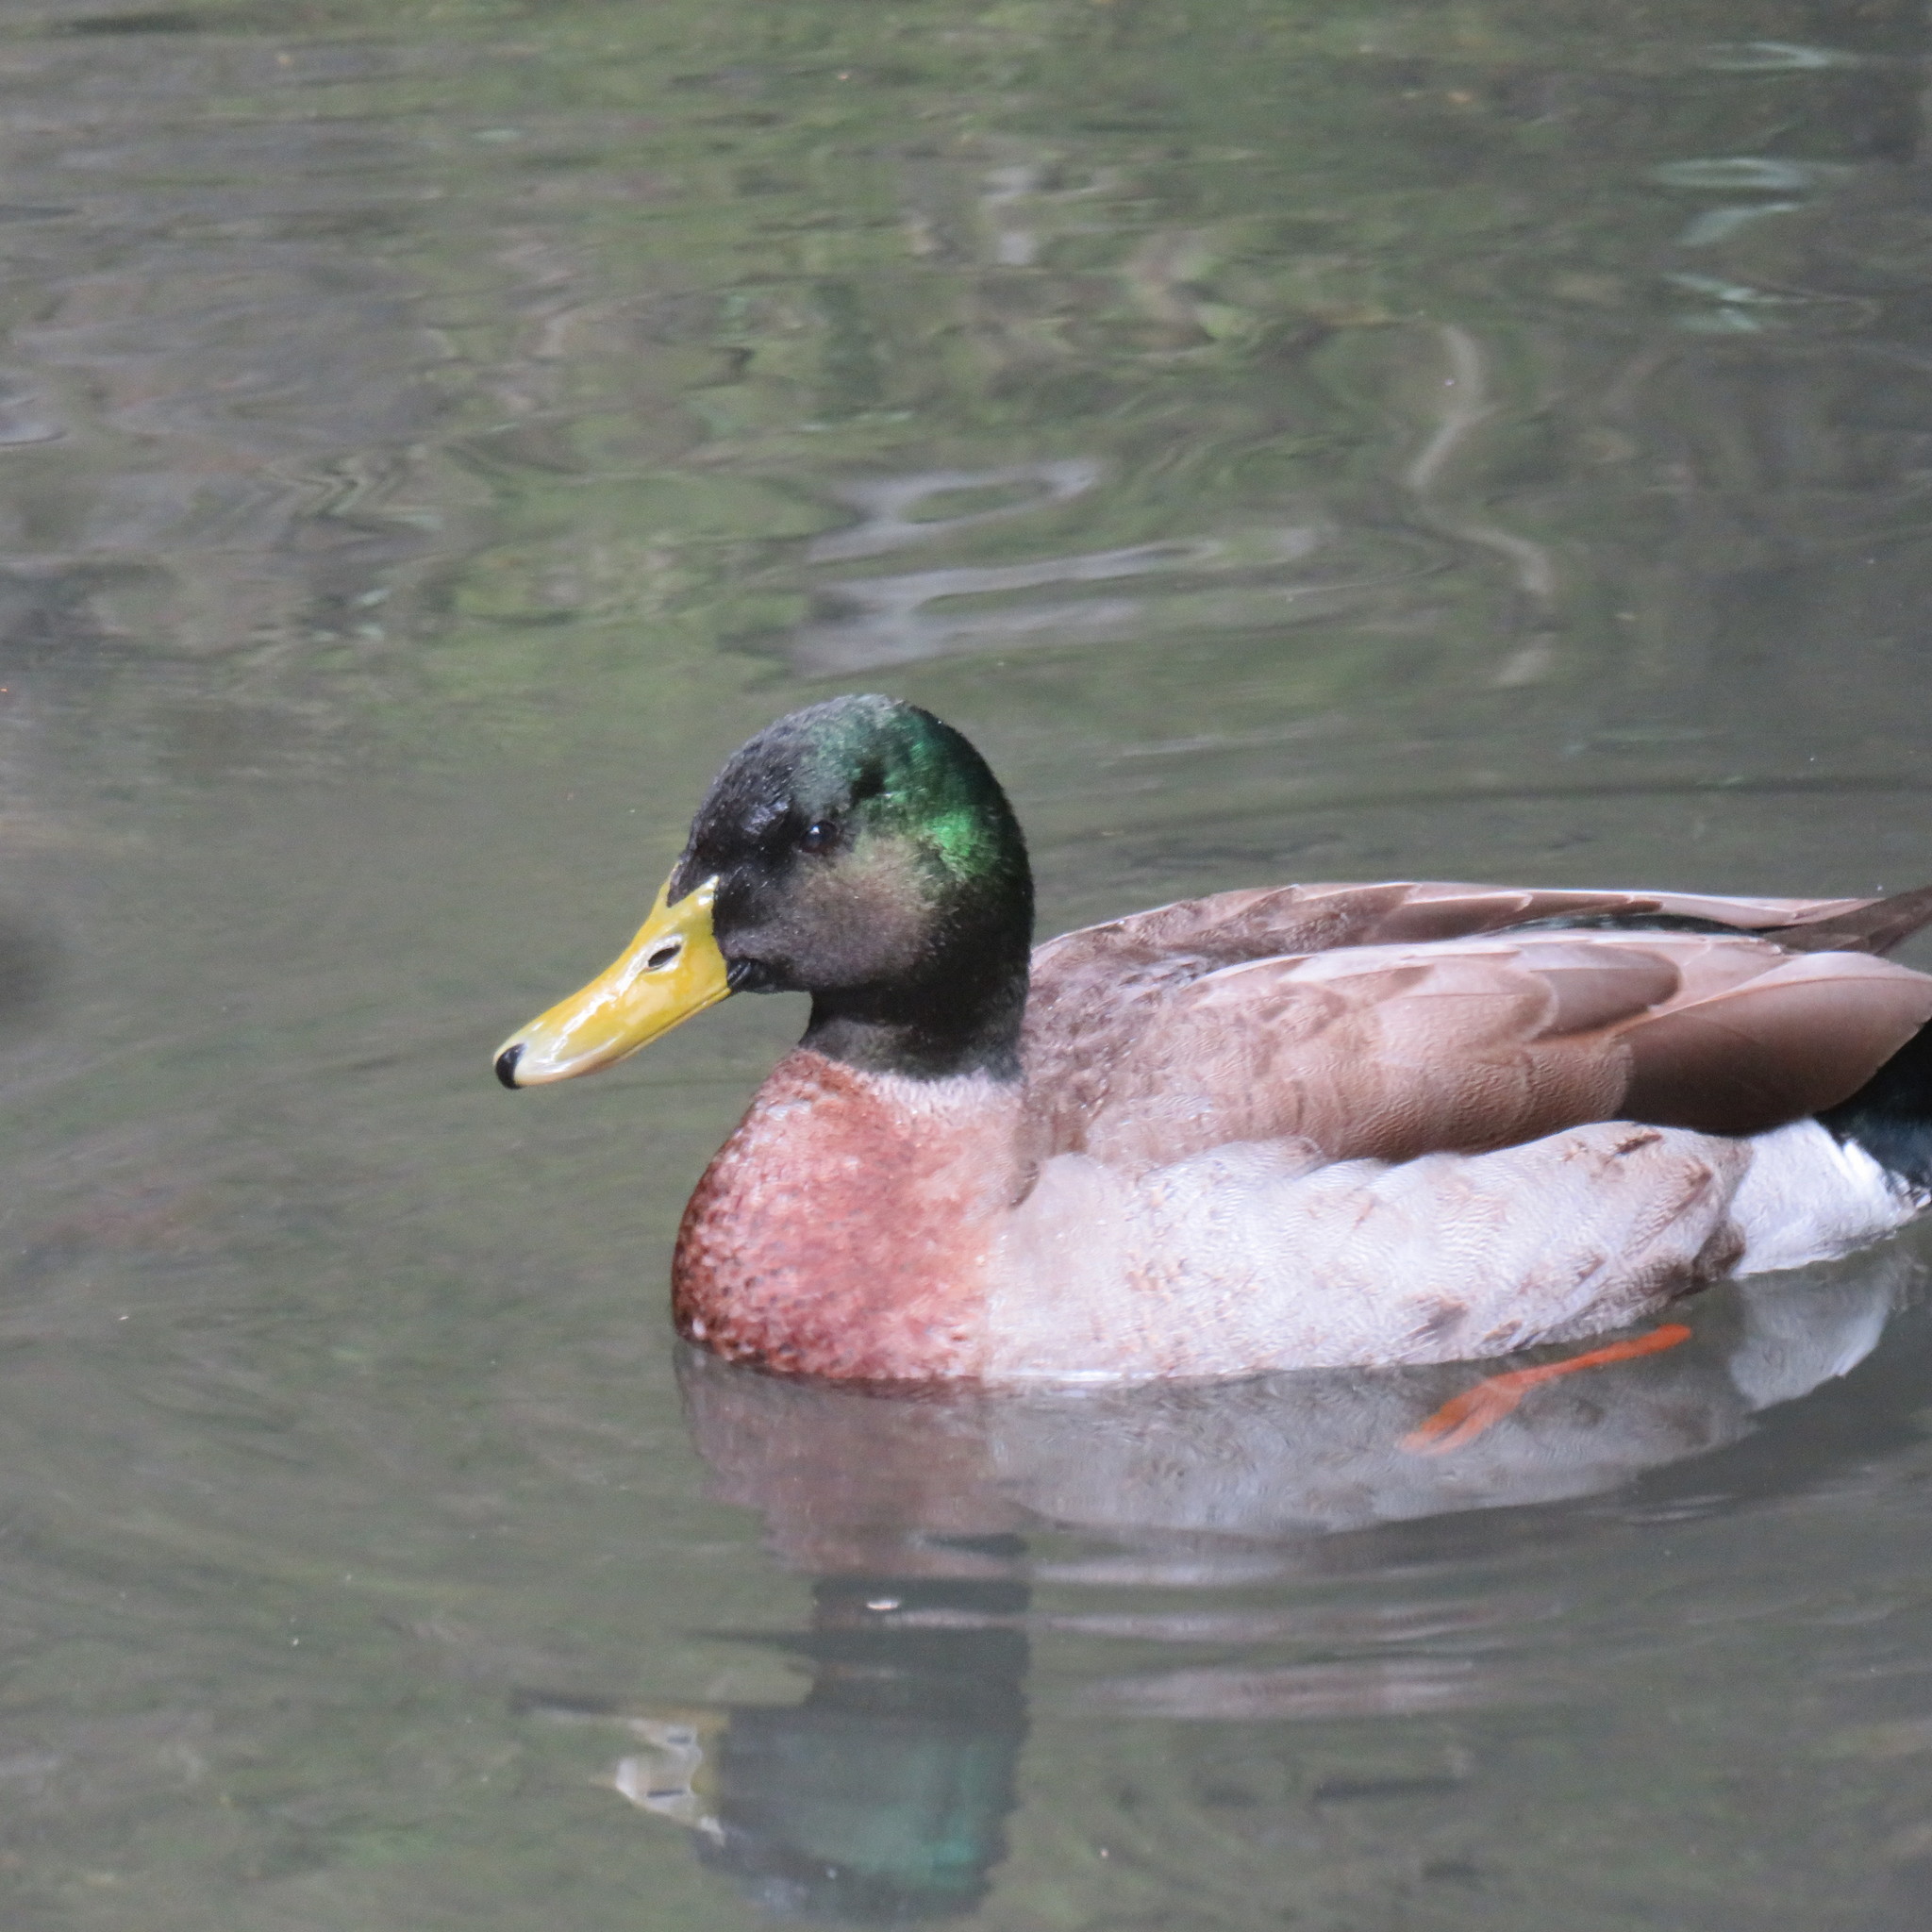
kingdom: Animalia
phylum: Chordata
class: Aves
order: Anseriformes
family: Anatidae
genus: Anas
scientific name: Anas platyrhynchos
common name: Mallard
